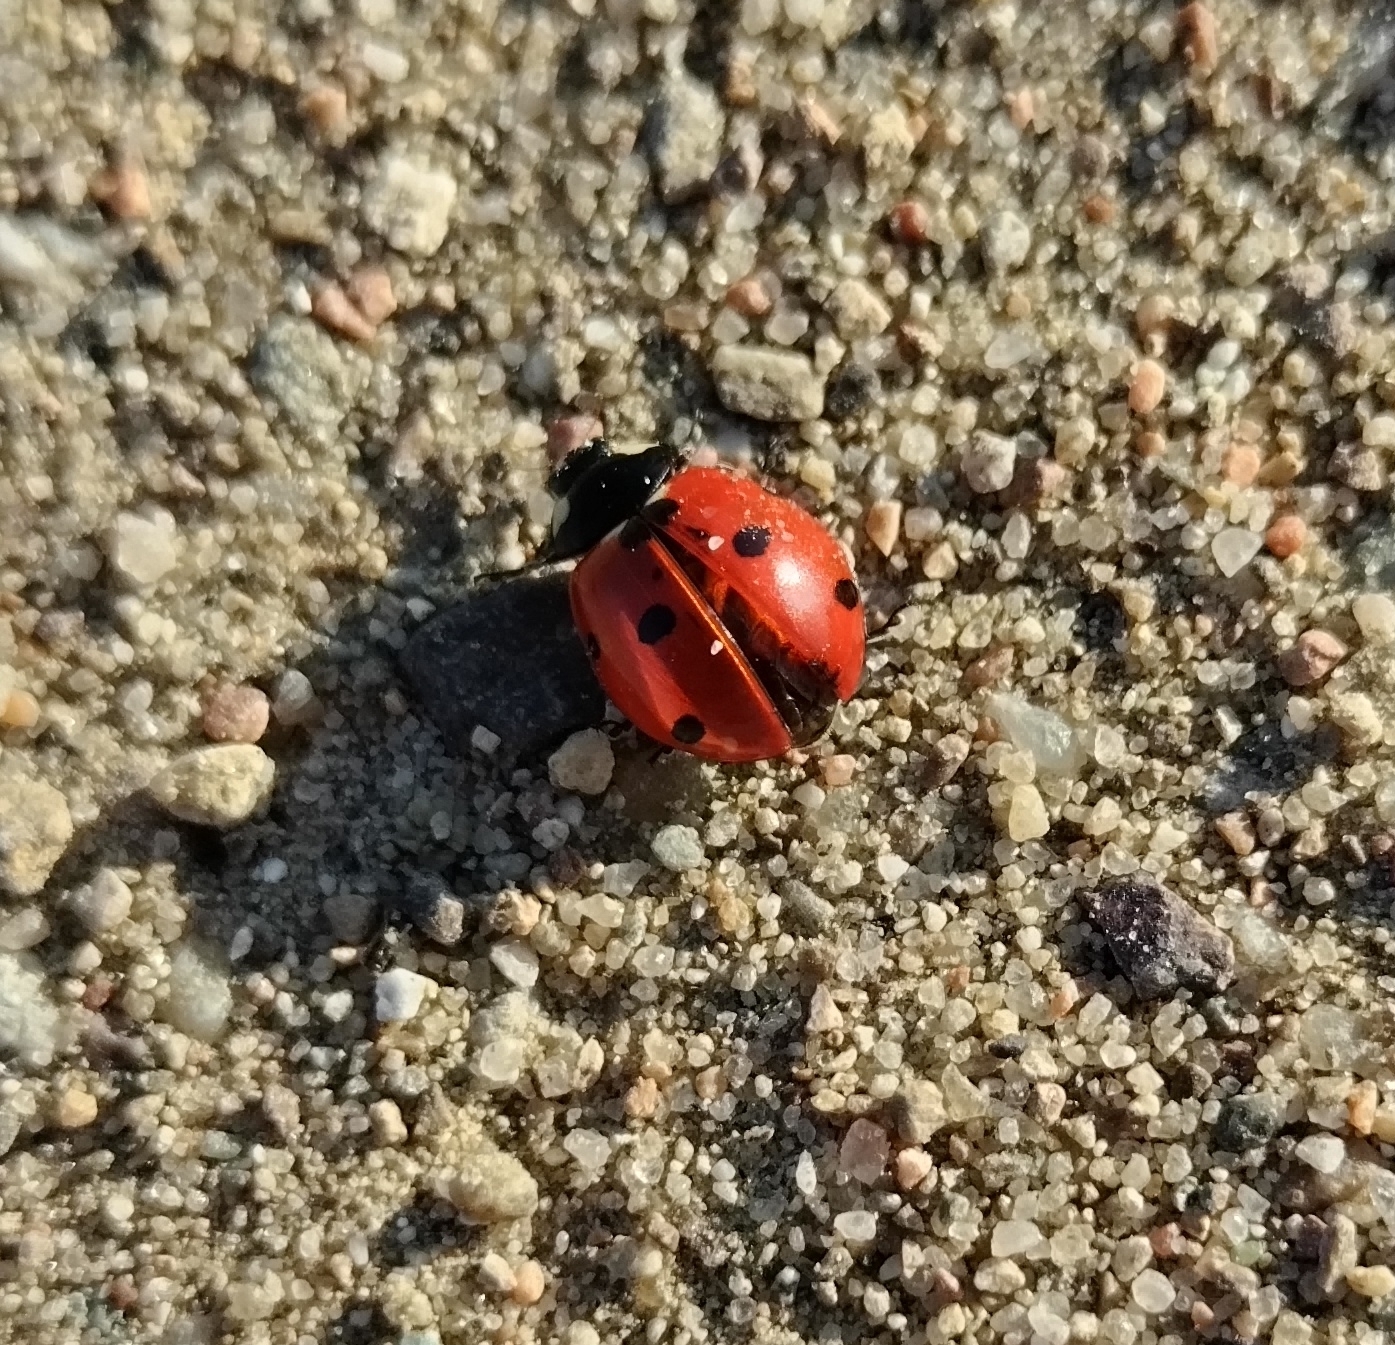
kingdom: Animalia
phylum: Arthropoda
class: Insecta
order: Coleoptera
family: Coccinellidae
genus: Coccinella
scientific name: Coccinella septempunctata
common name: Sevenspotted lady beetle
